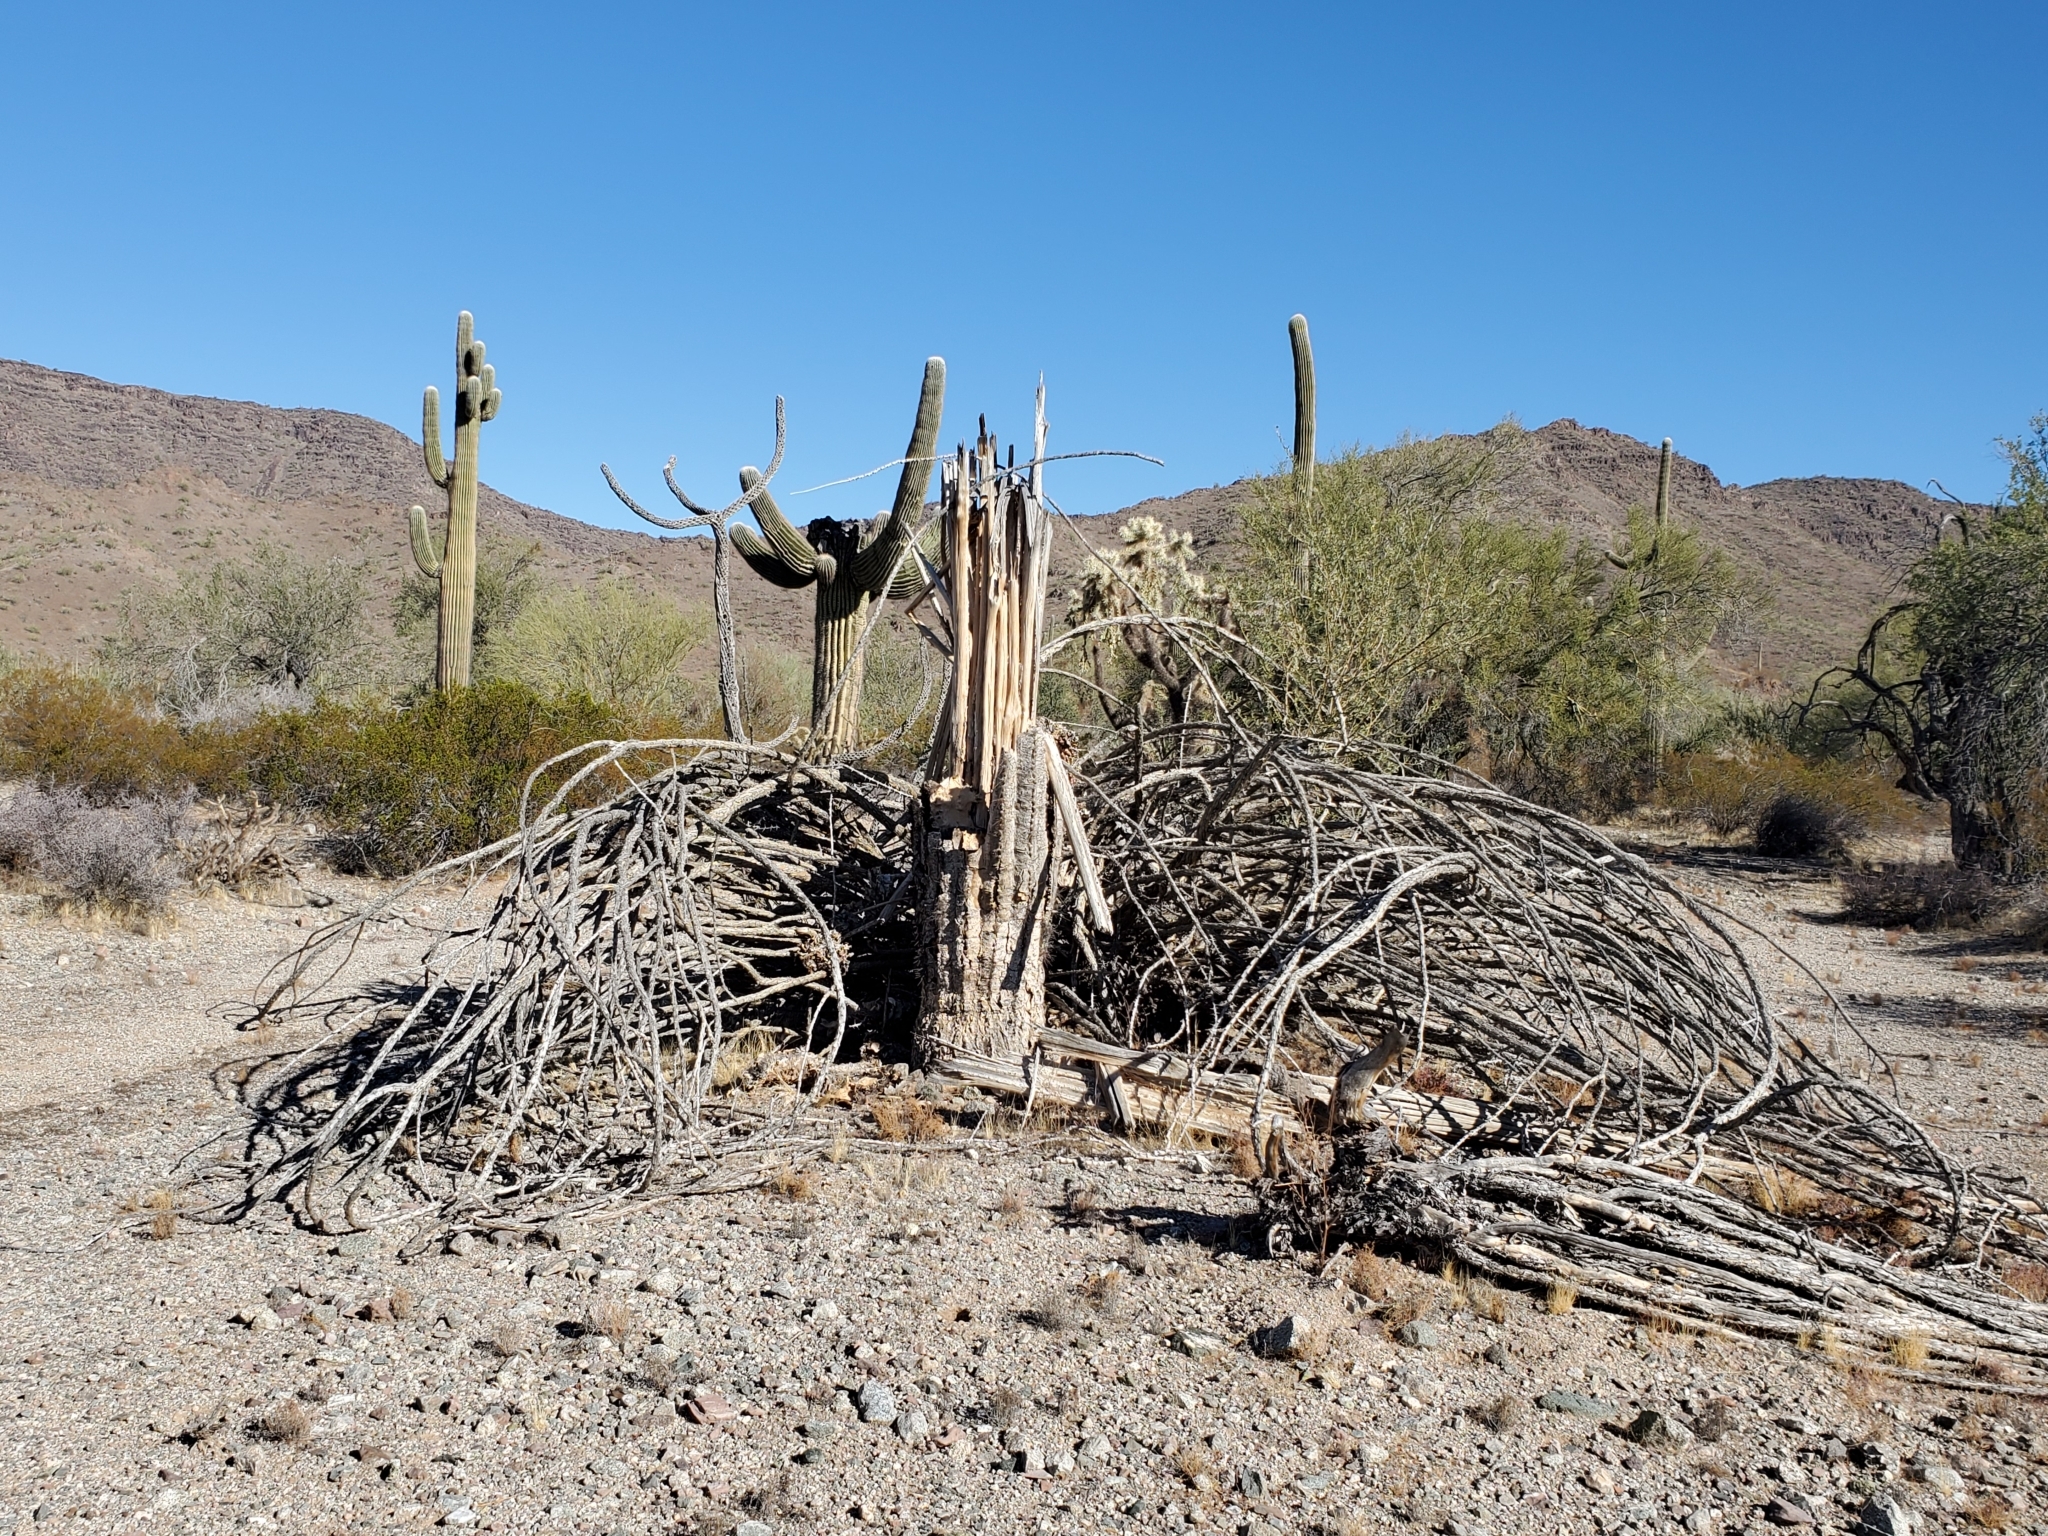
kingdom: Plantae
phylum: Tracheophyta
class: Magnoliopsida
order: Caryophyllales
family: Cactaceae
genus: Carnegiea
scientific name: Carnegiea gigantea
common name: Saguaro
